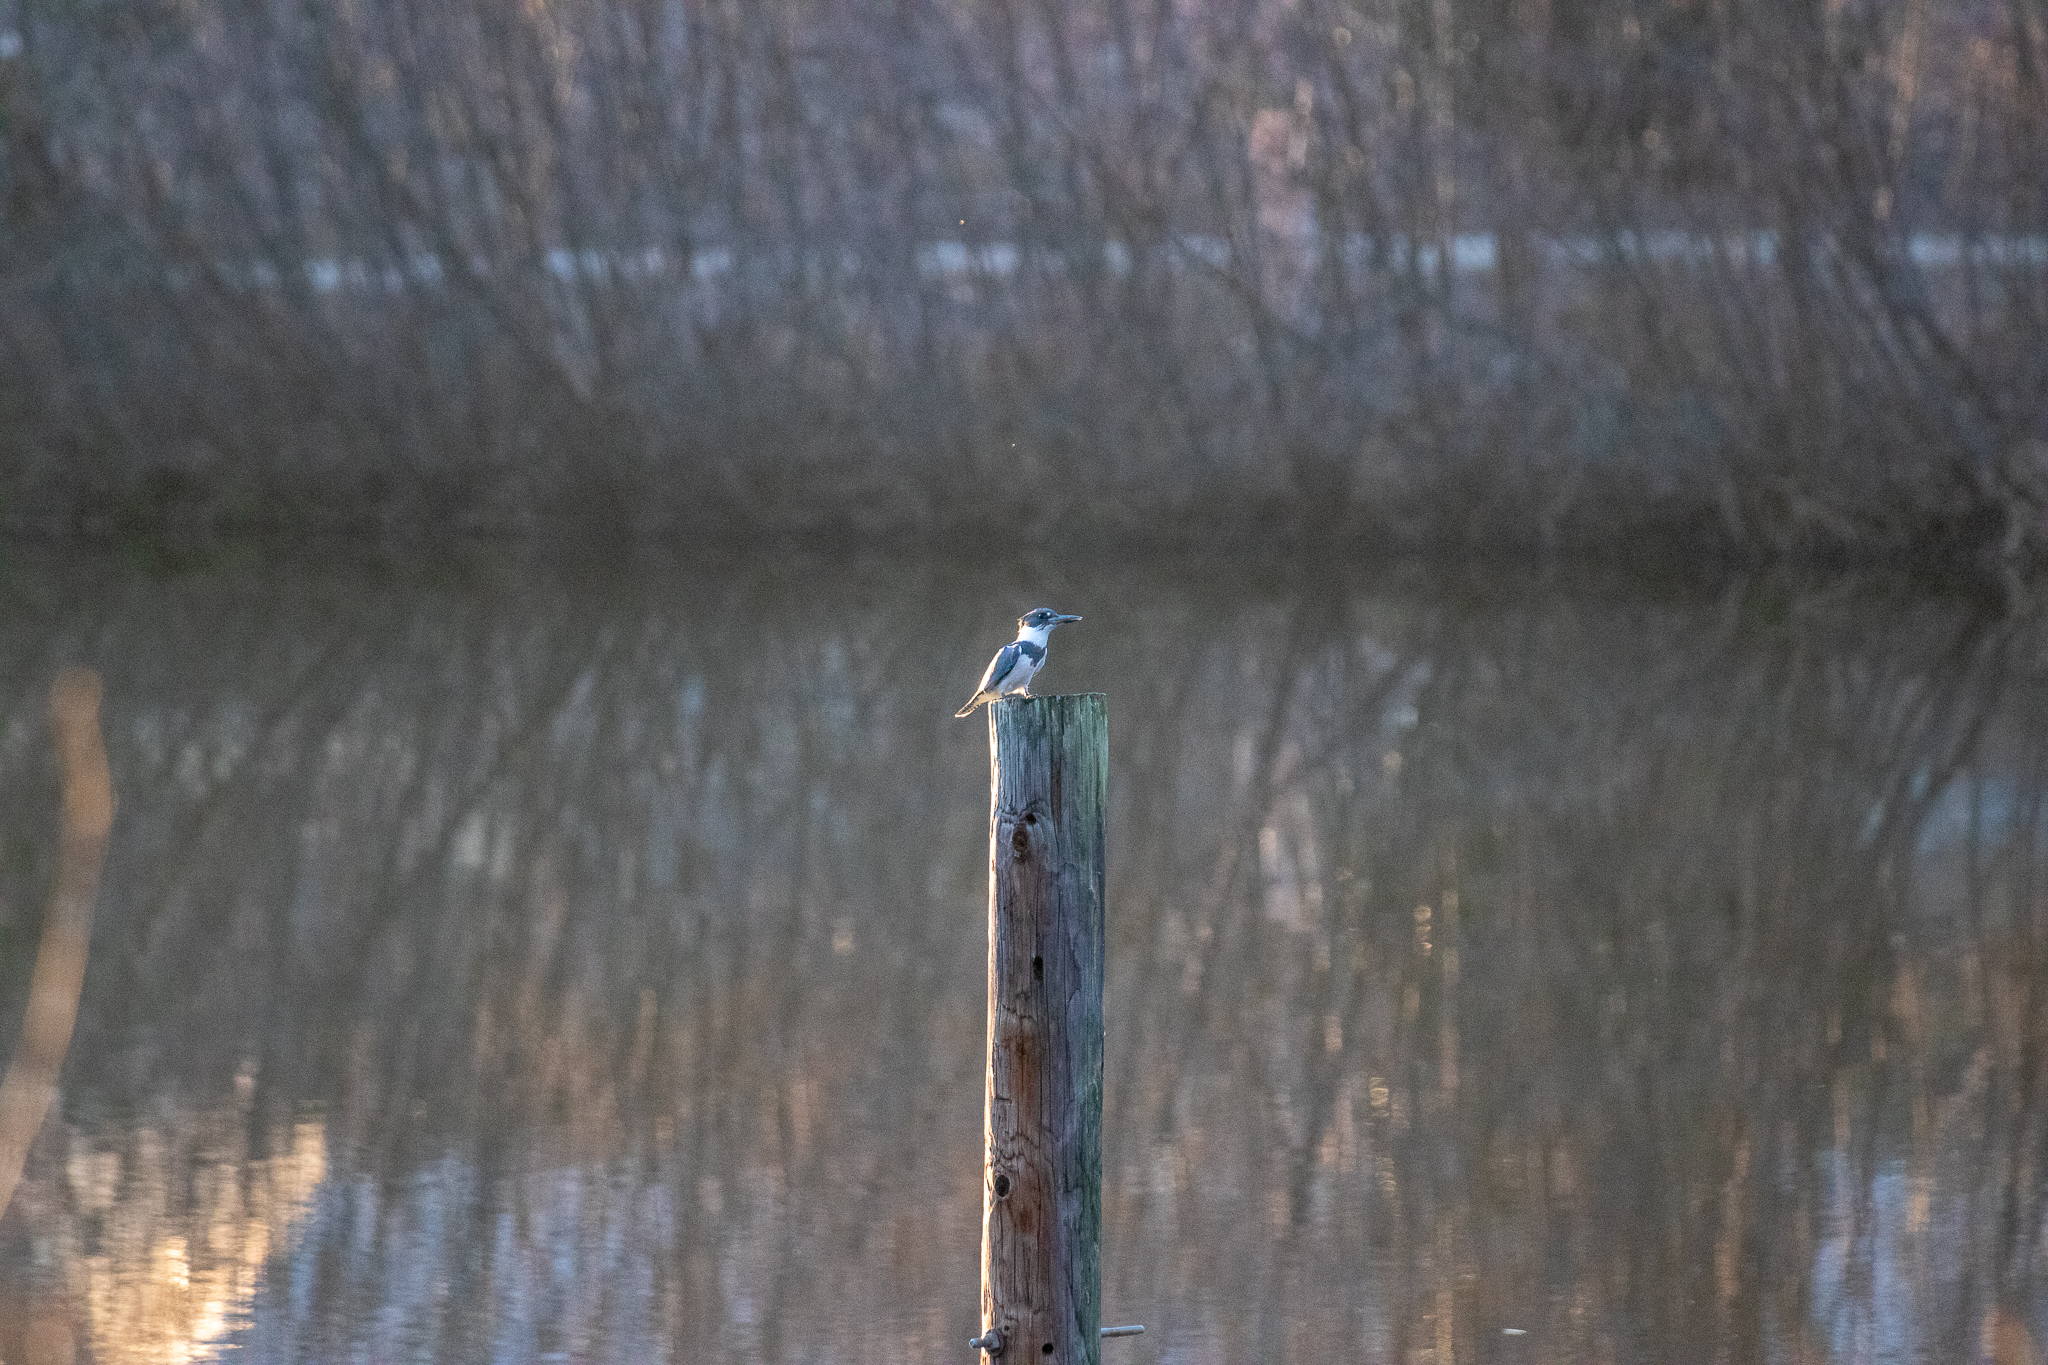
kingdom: Animalia
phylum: Chordata
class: Aves
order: Coraciiformes
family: Alcedinidae
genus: Megaceryle
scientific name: Megaceryle alcyon
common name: Belted kingfisher
